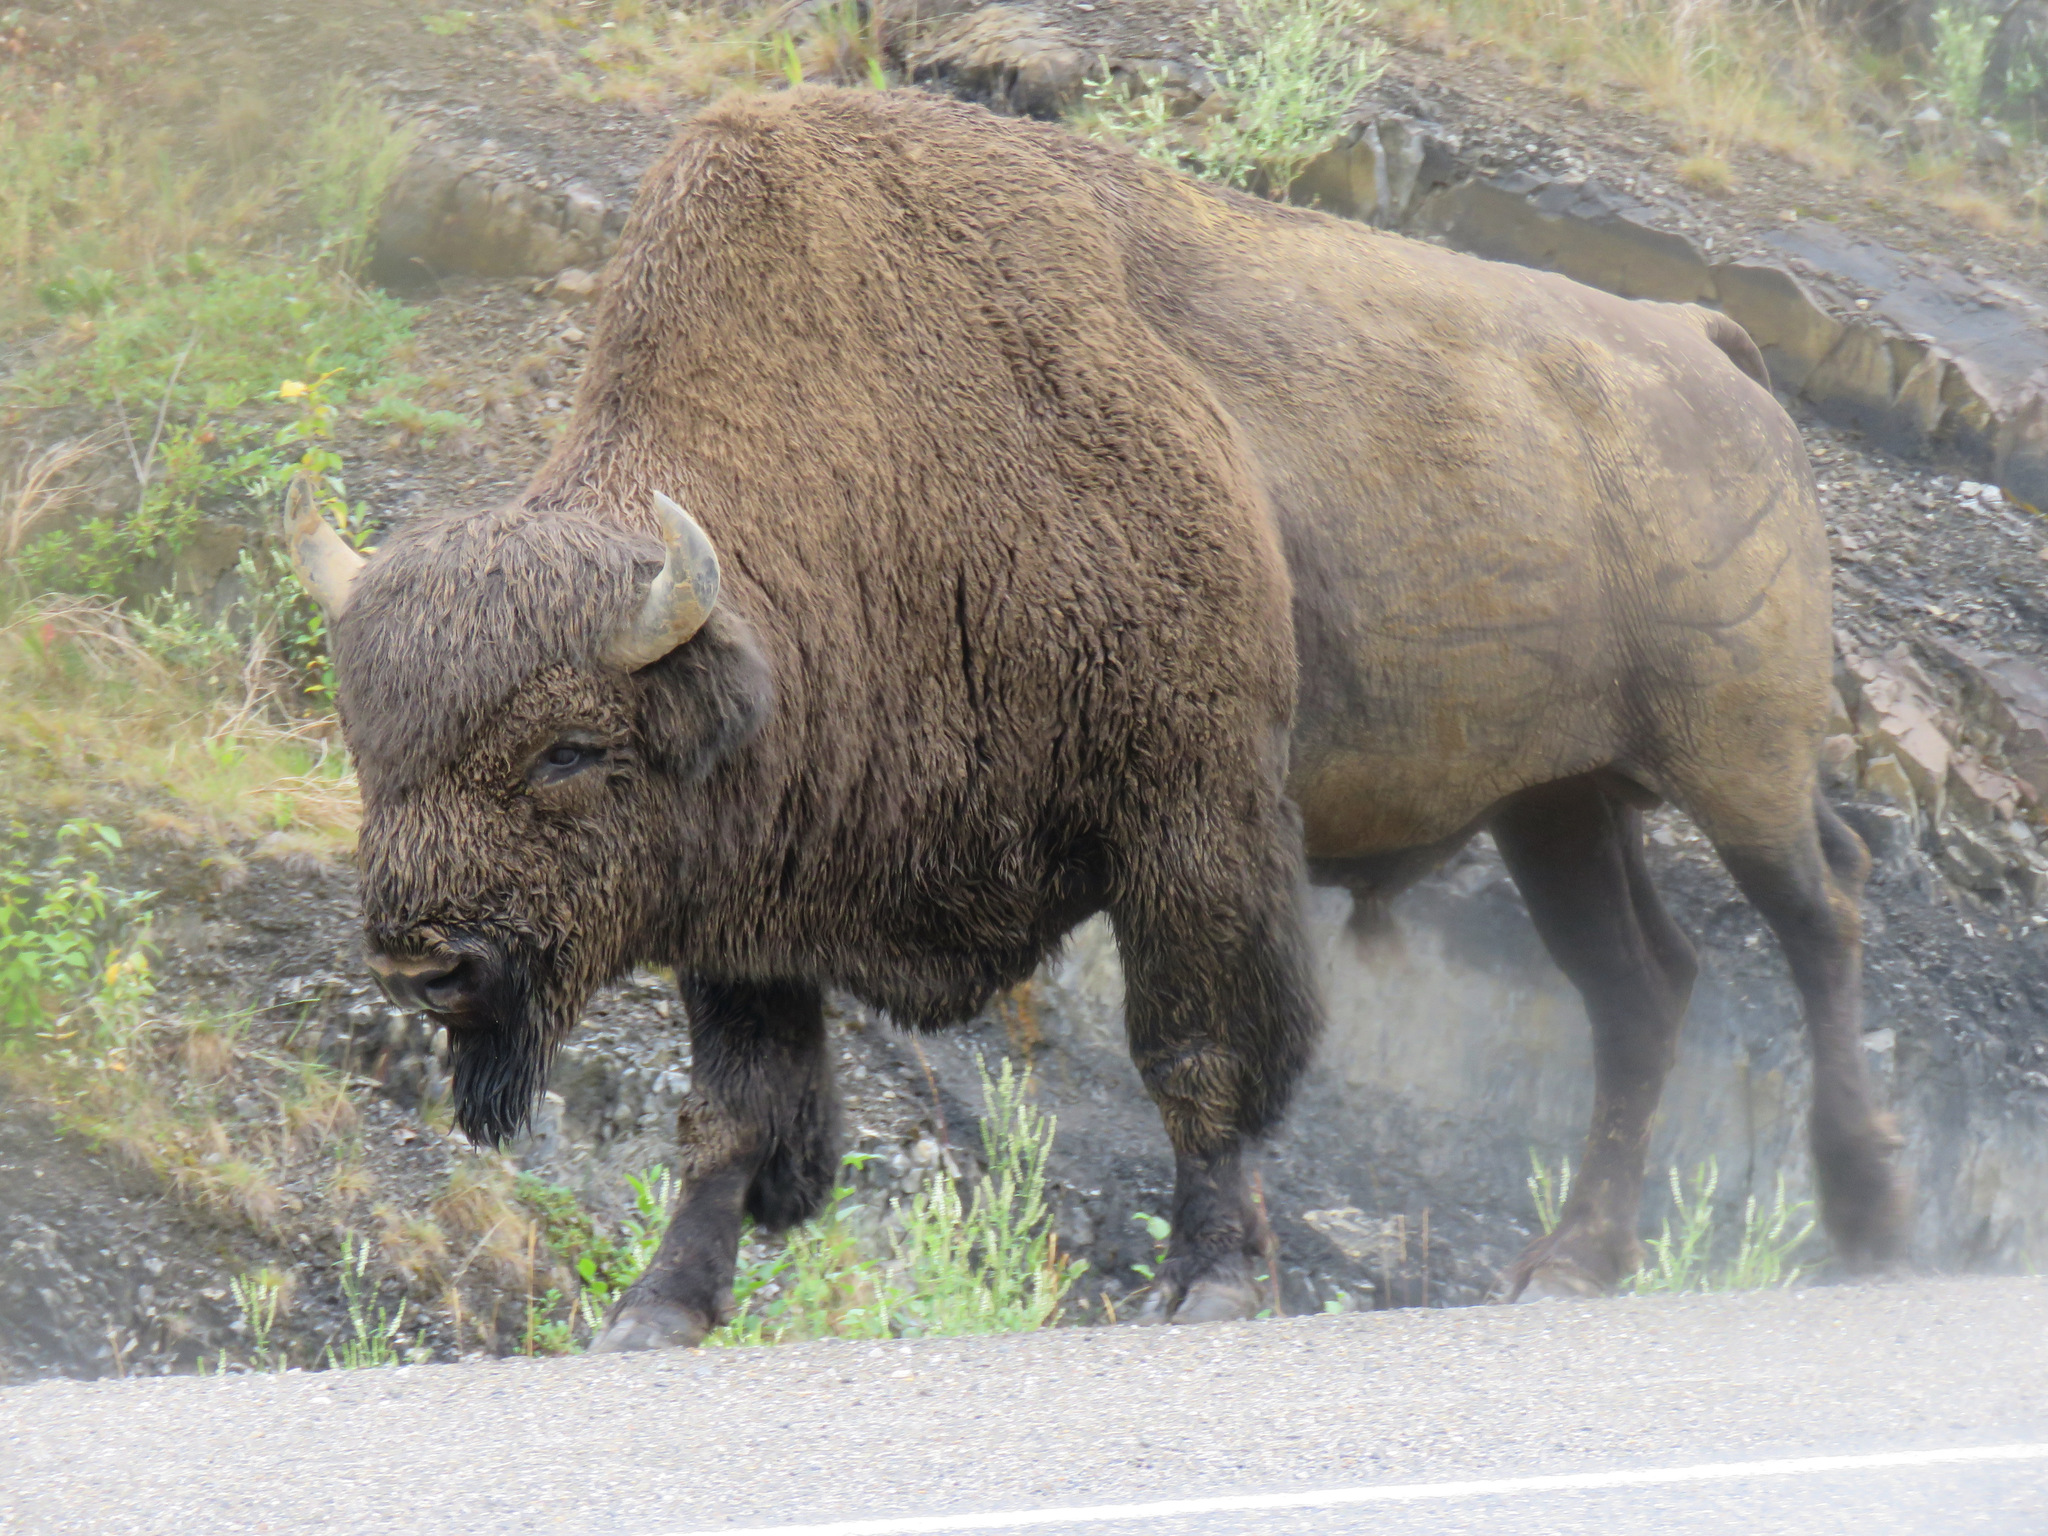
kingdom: Animalia
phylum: Chordata
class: Mammalia
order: Artiodactyla
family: Bovidae
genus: Bison
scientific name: Bison bison
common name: American bison
